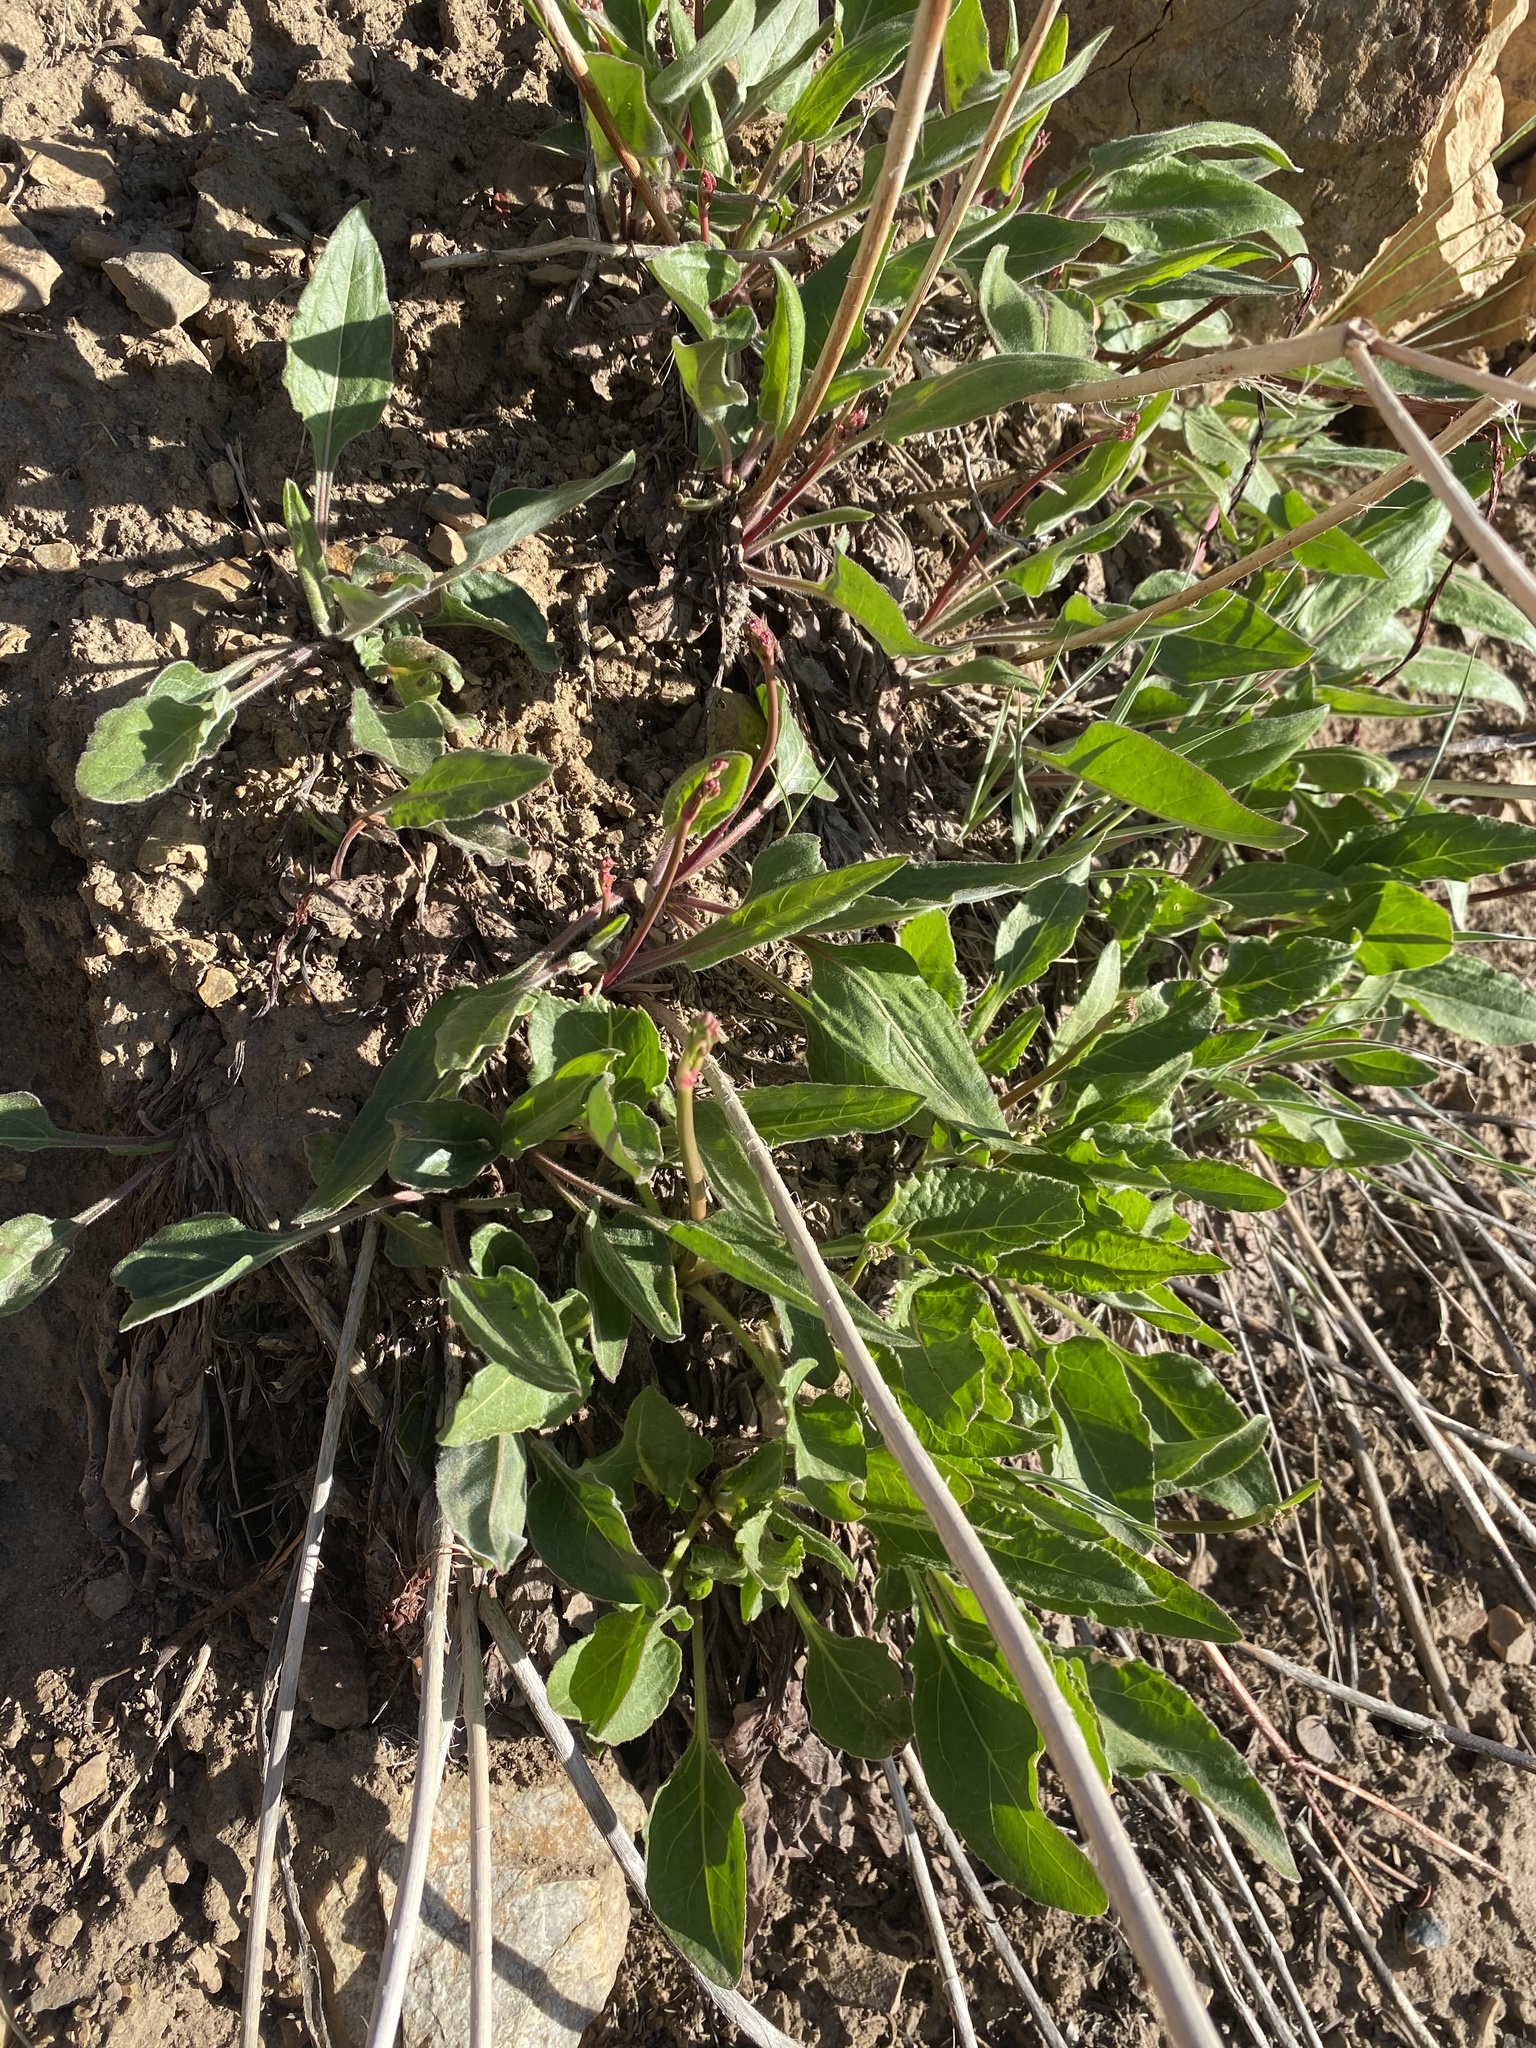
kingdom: Plantae
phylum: Tracheophyta
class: Magnoliopsida
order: Caryophyllales
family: Polygonaceae
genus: Eriogonum
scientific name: Eriogonum elatum
